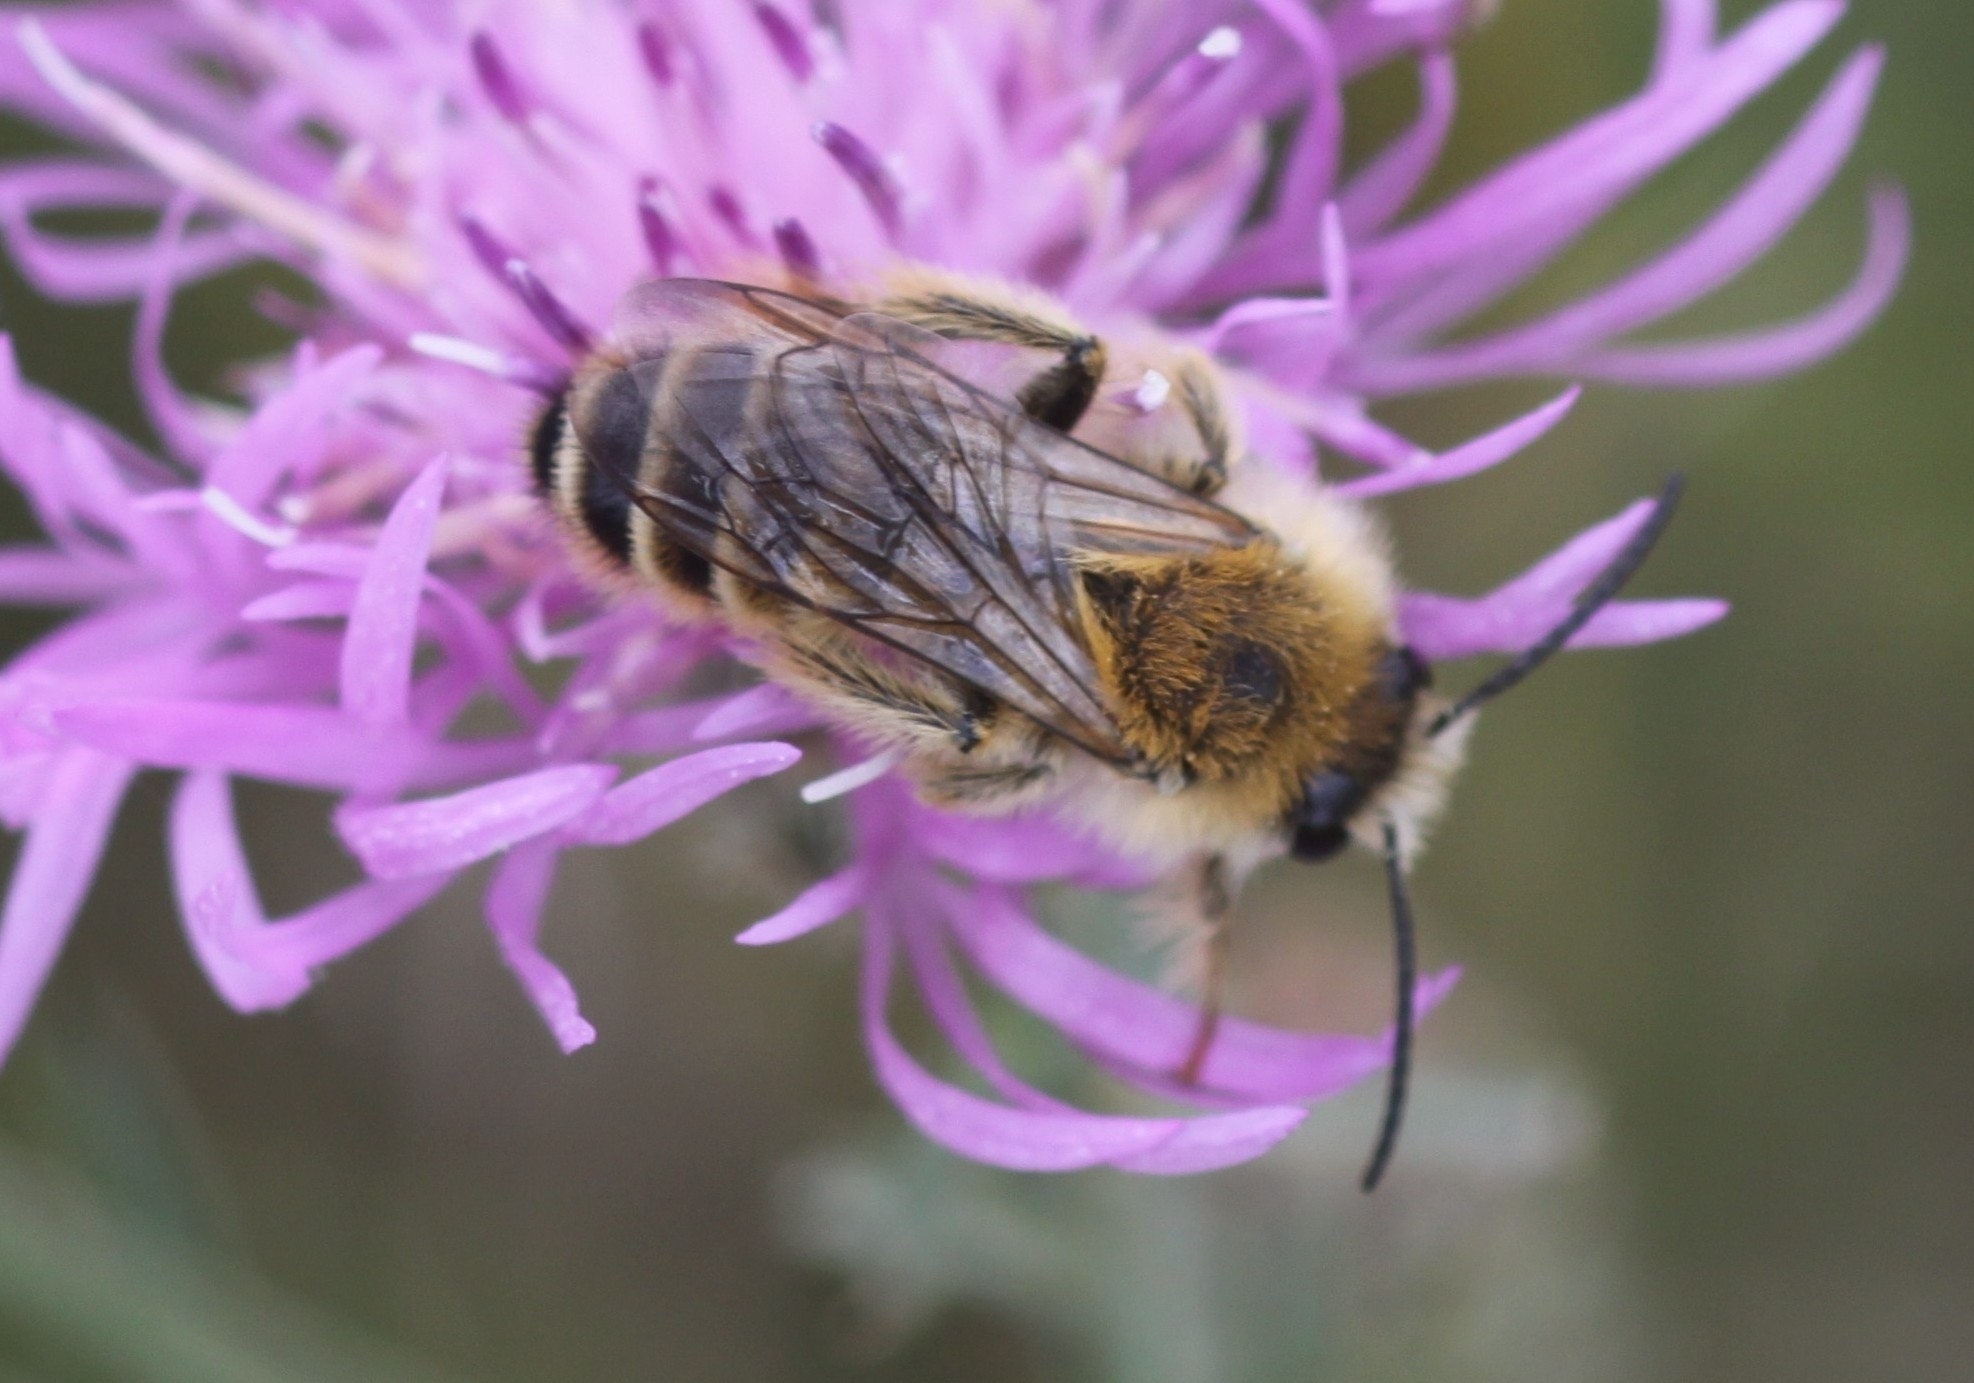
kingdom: Animalia
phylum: Arthropoda
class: Insecta
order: Hymenoptera
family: Melittidae
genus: Dasypoda
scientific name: Dasypoda hirtipes
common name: Pantaloon bee
